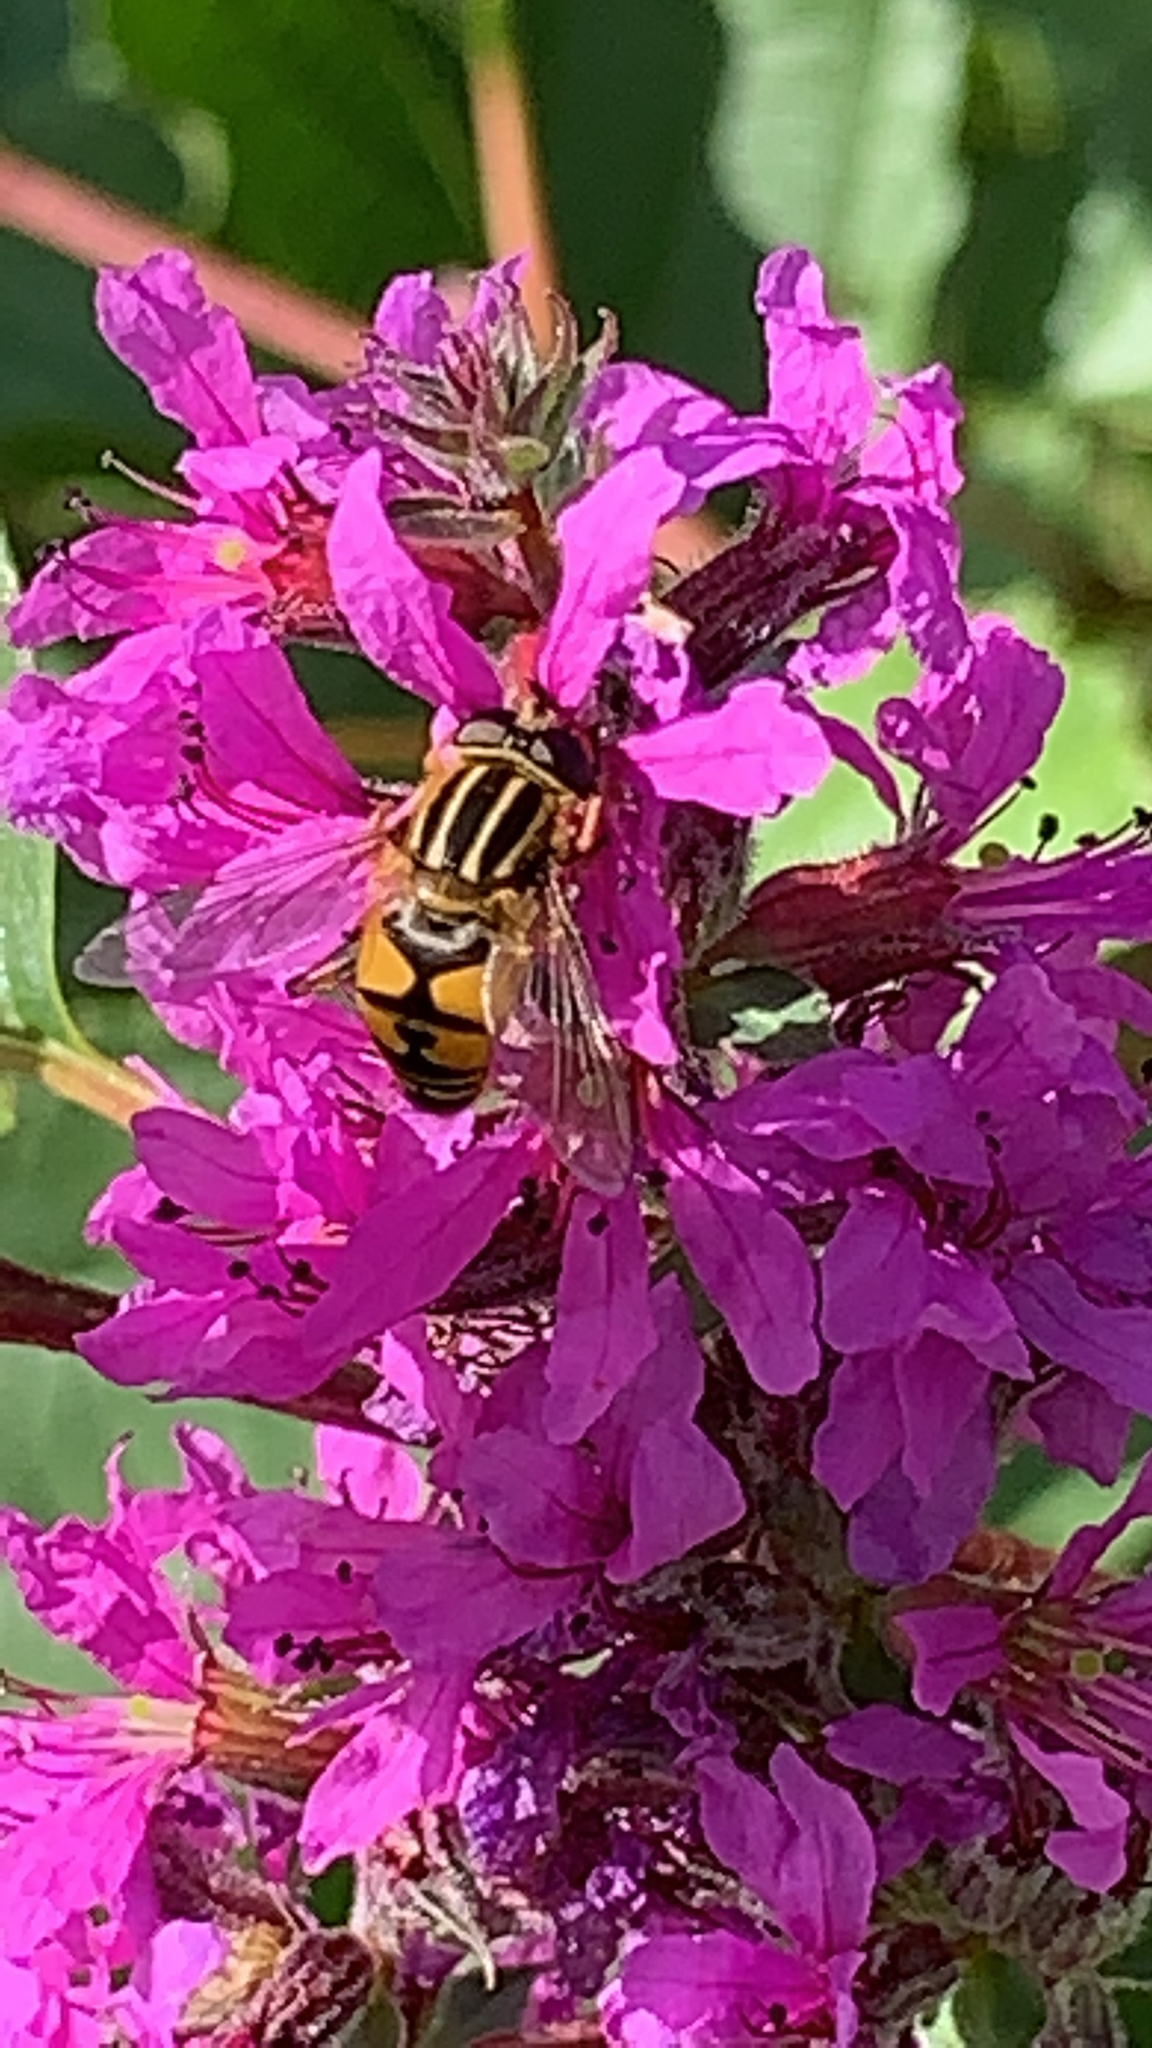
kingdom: Animalia
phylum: Arthropoda
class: Insecta
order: Diptera
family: Syrphidae
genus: Helophilus
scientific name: Helophilus pendulus
